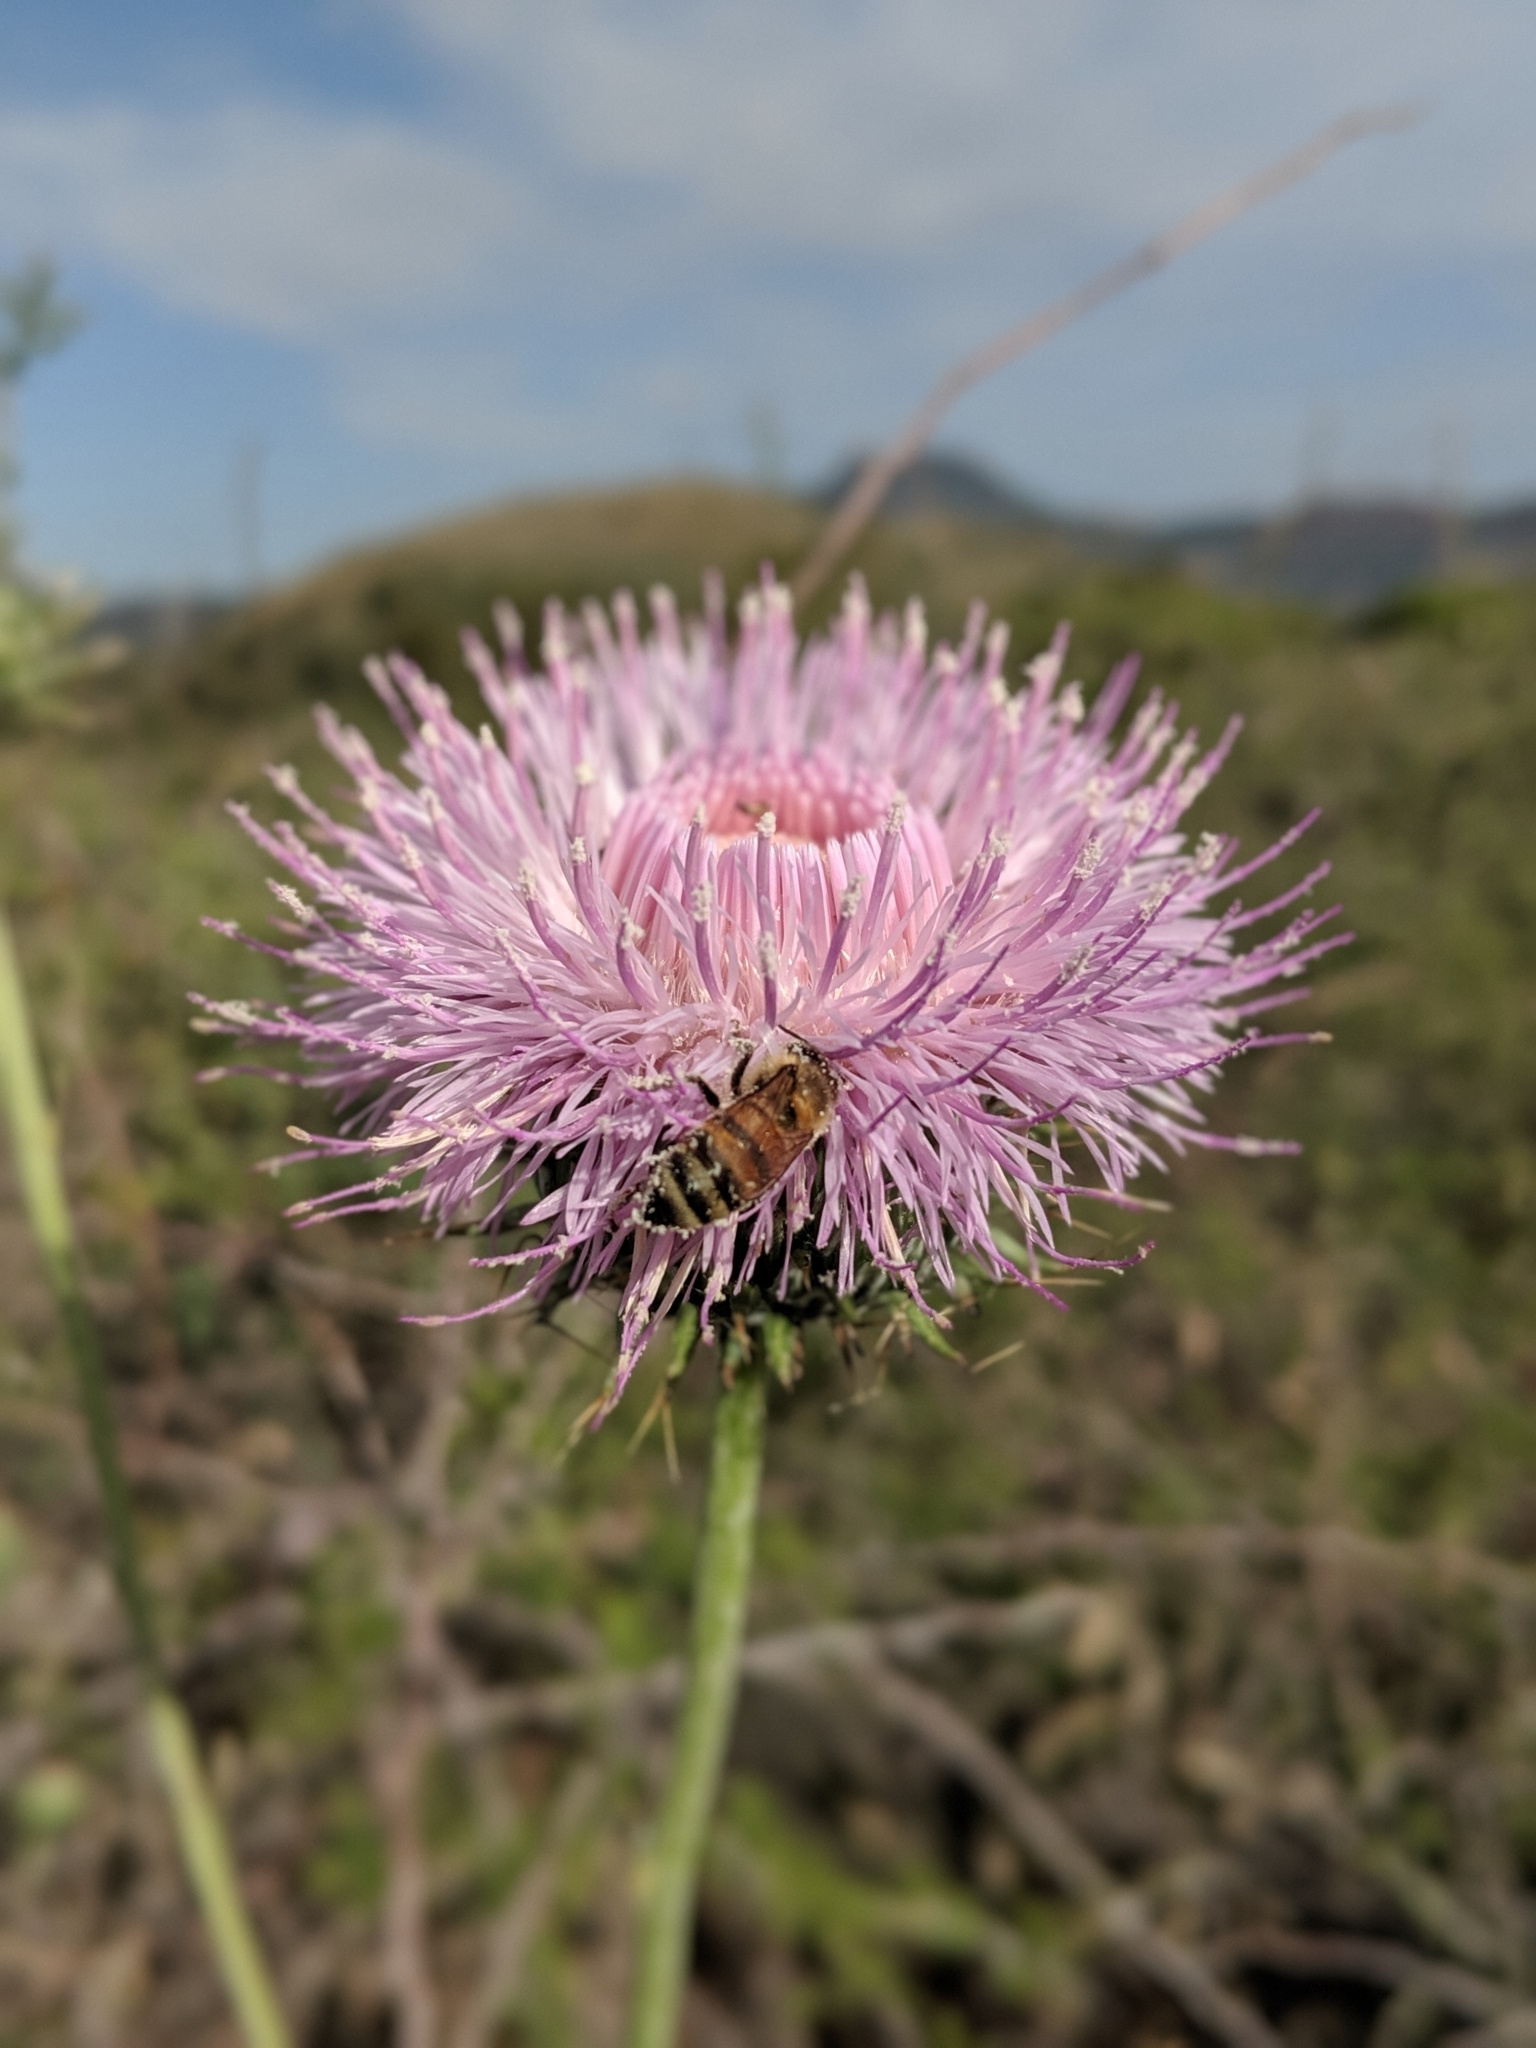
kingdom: Animalia
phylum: Arthropoda
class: Insecta
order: Hymenoptera
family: Apidae
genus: Apis
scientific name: Apis mellifera
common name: Honey bee
